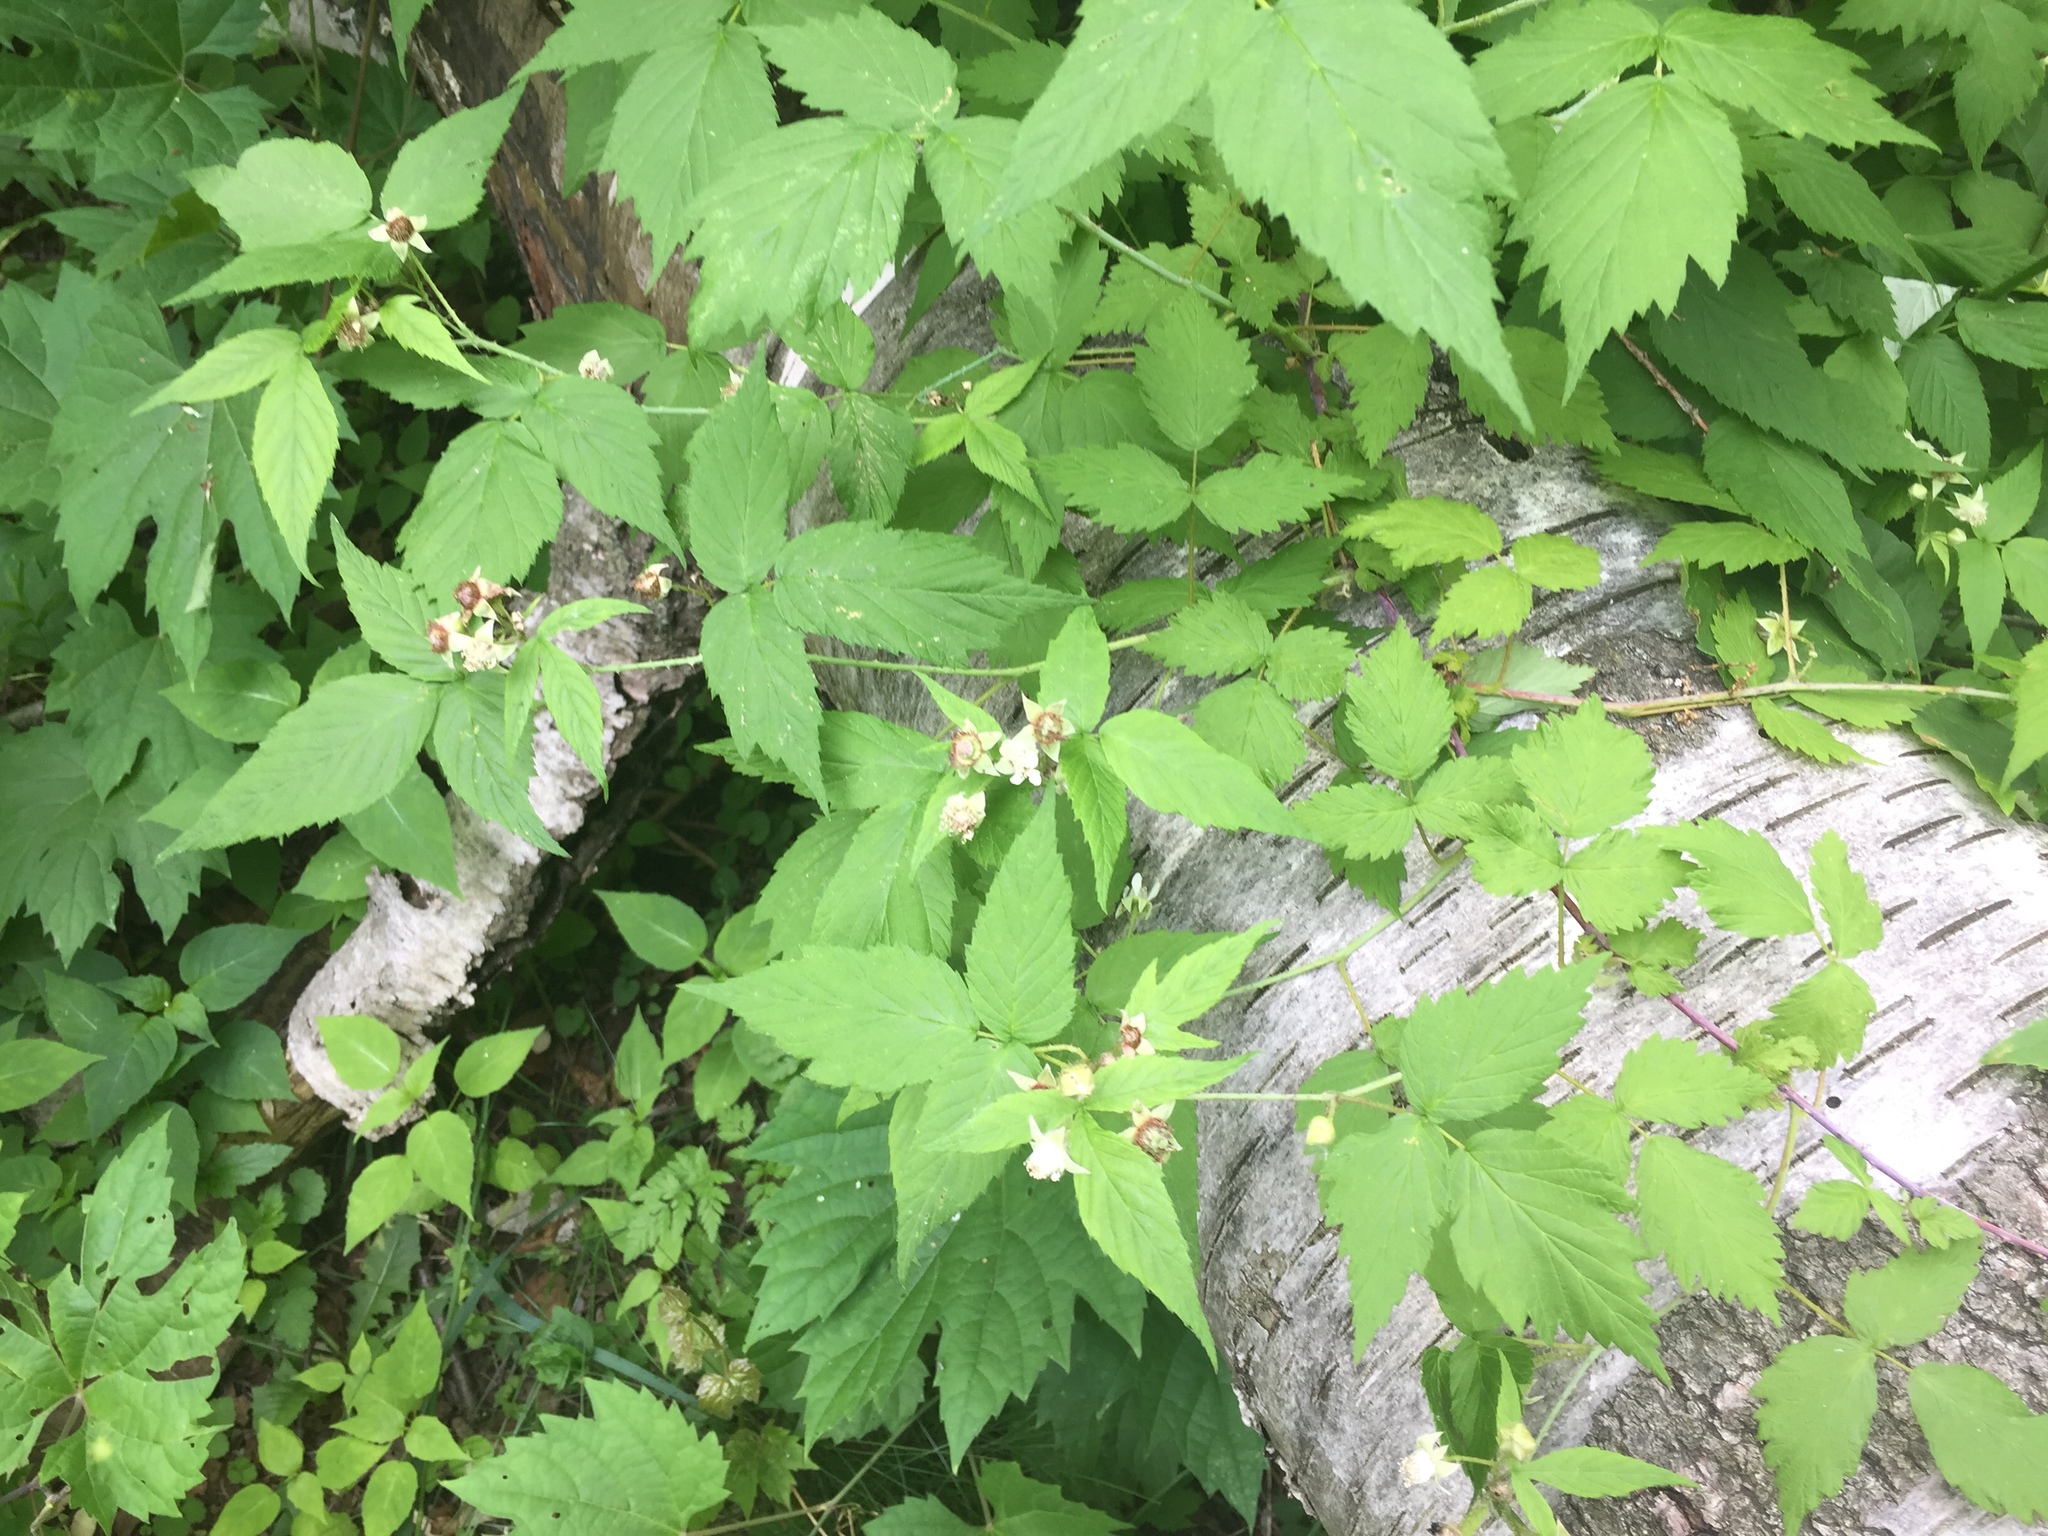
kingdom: Plantae
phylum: Tracheophyta
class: Magnoliopsida
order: Rosales
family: Rosaceae
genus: Rubus
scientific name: Rubus occidentalis
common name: Black raspberry
